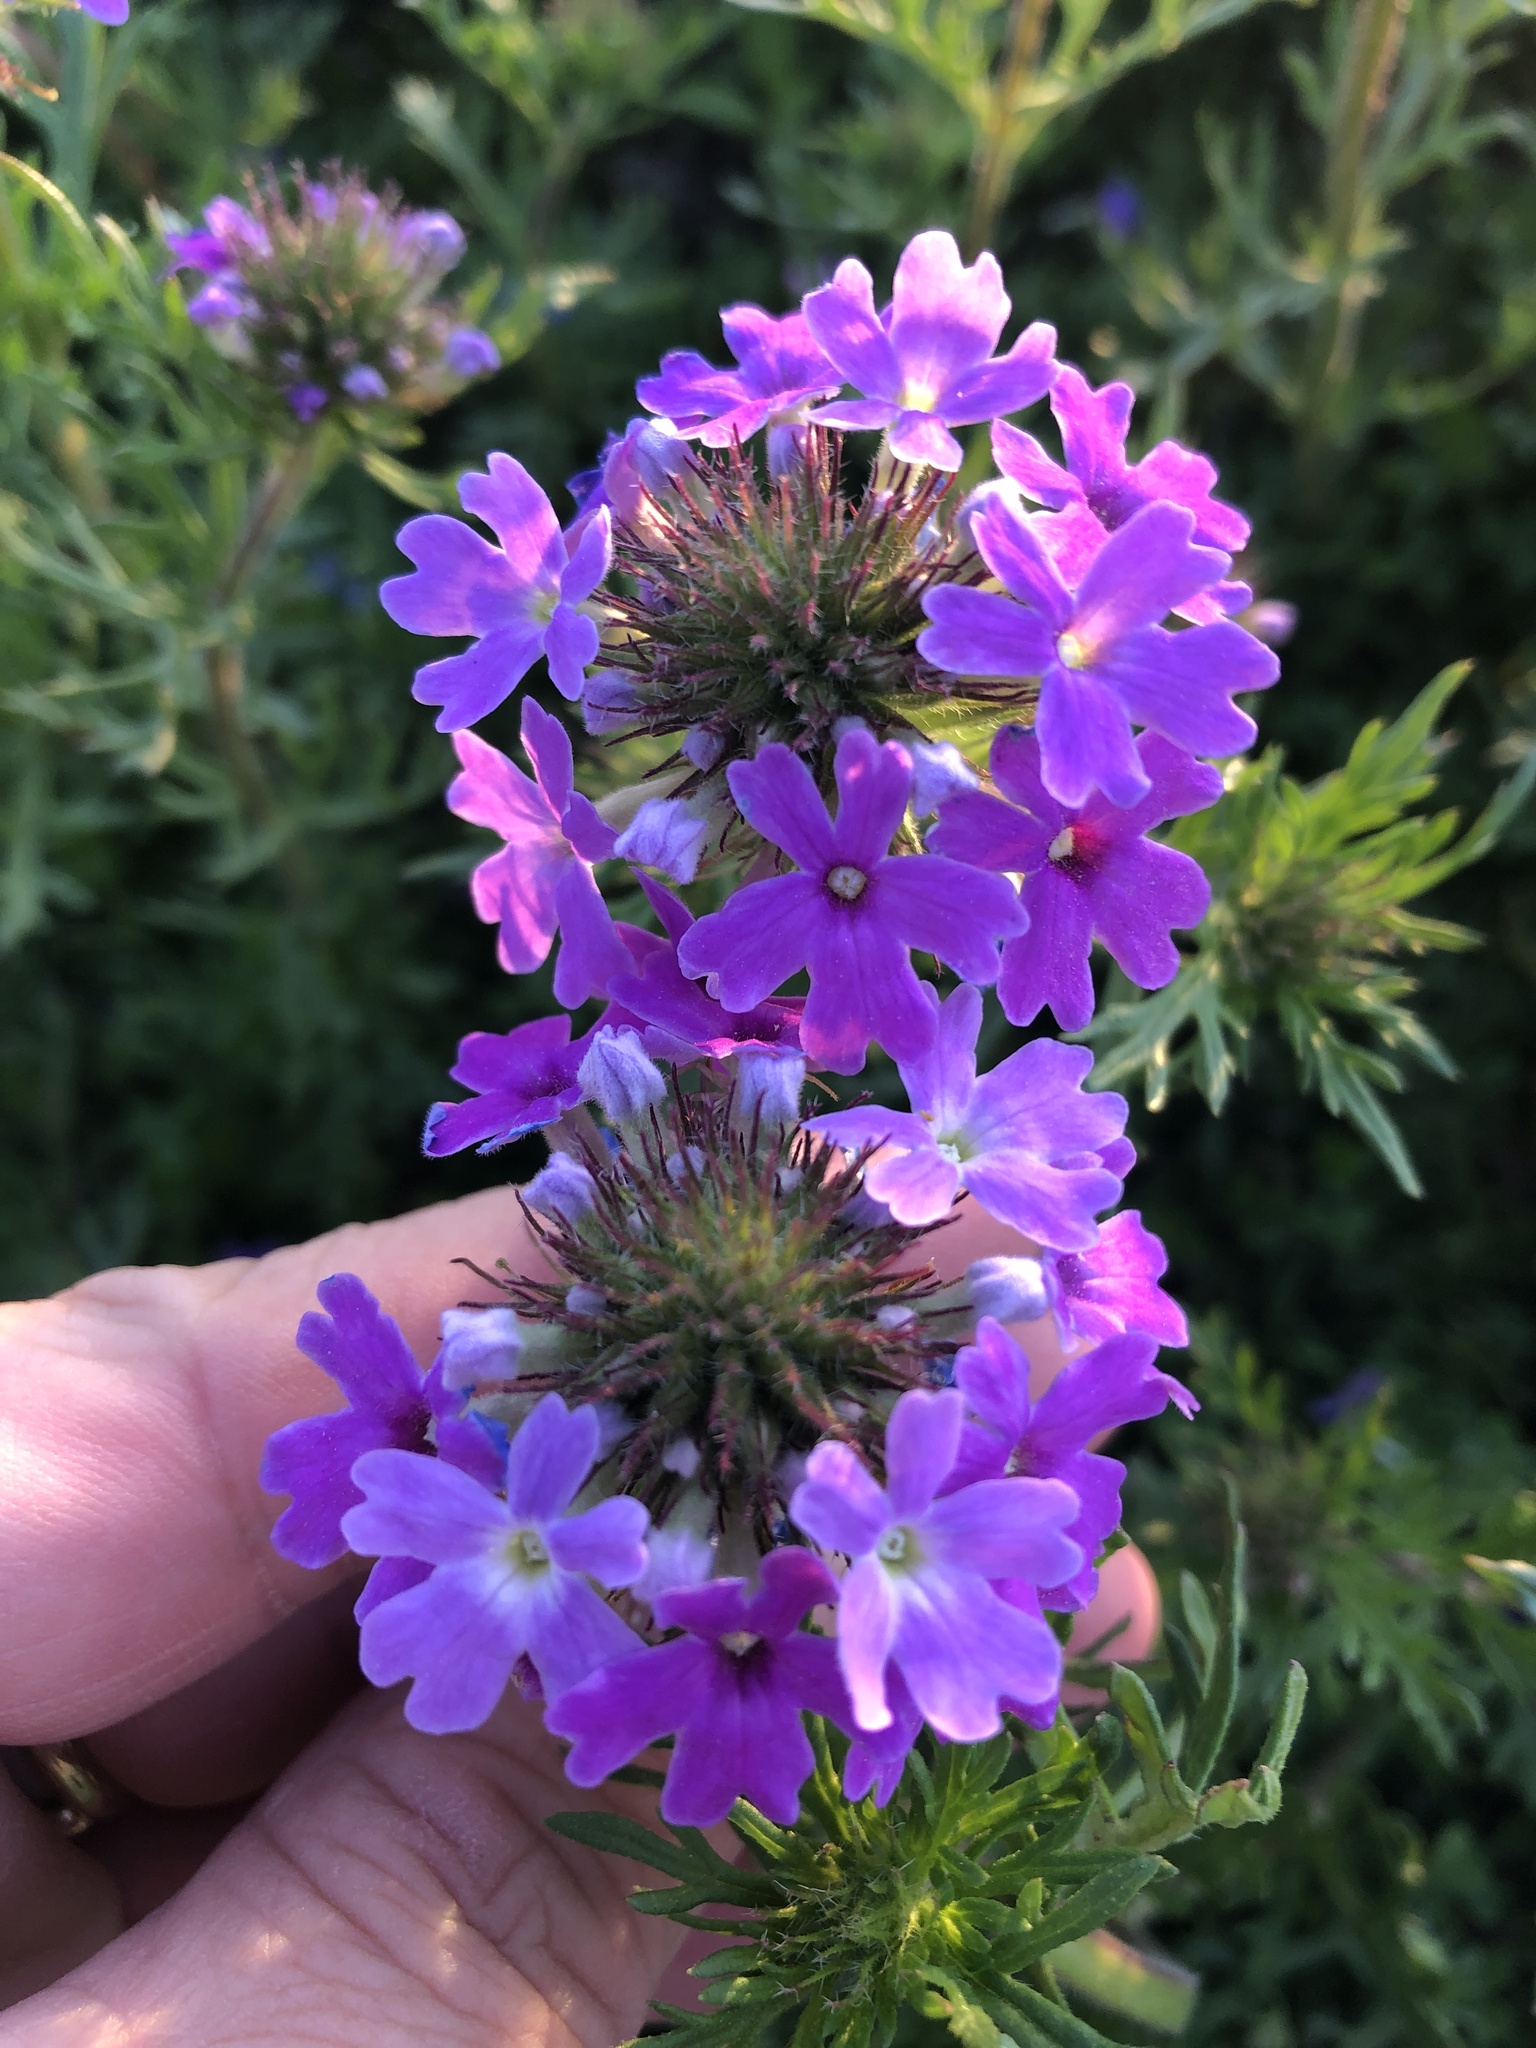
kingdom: Plantae
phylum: Tracheophyta
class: Magnoliopsida
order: Lamiales
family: Verbenaceae
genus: Verbena
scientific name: Verbena bipinnatifida
